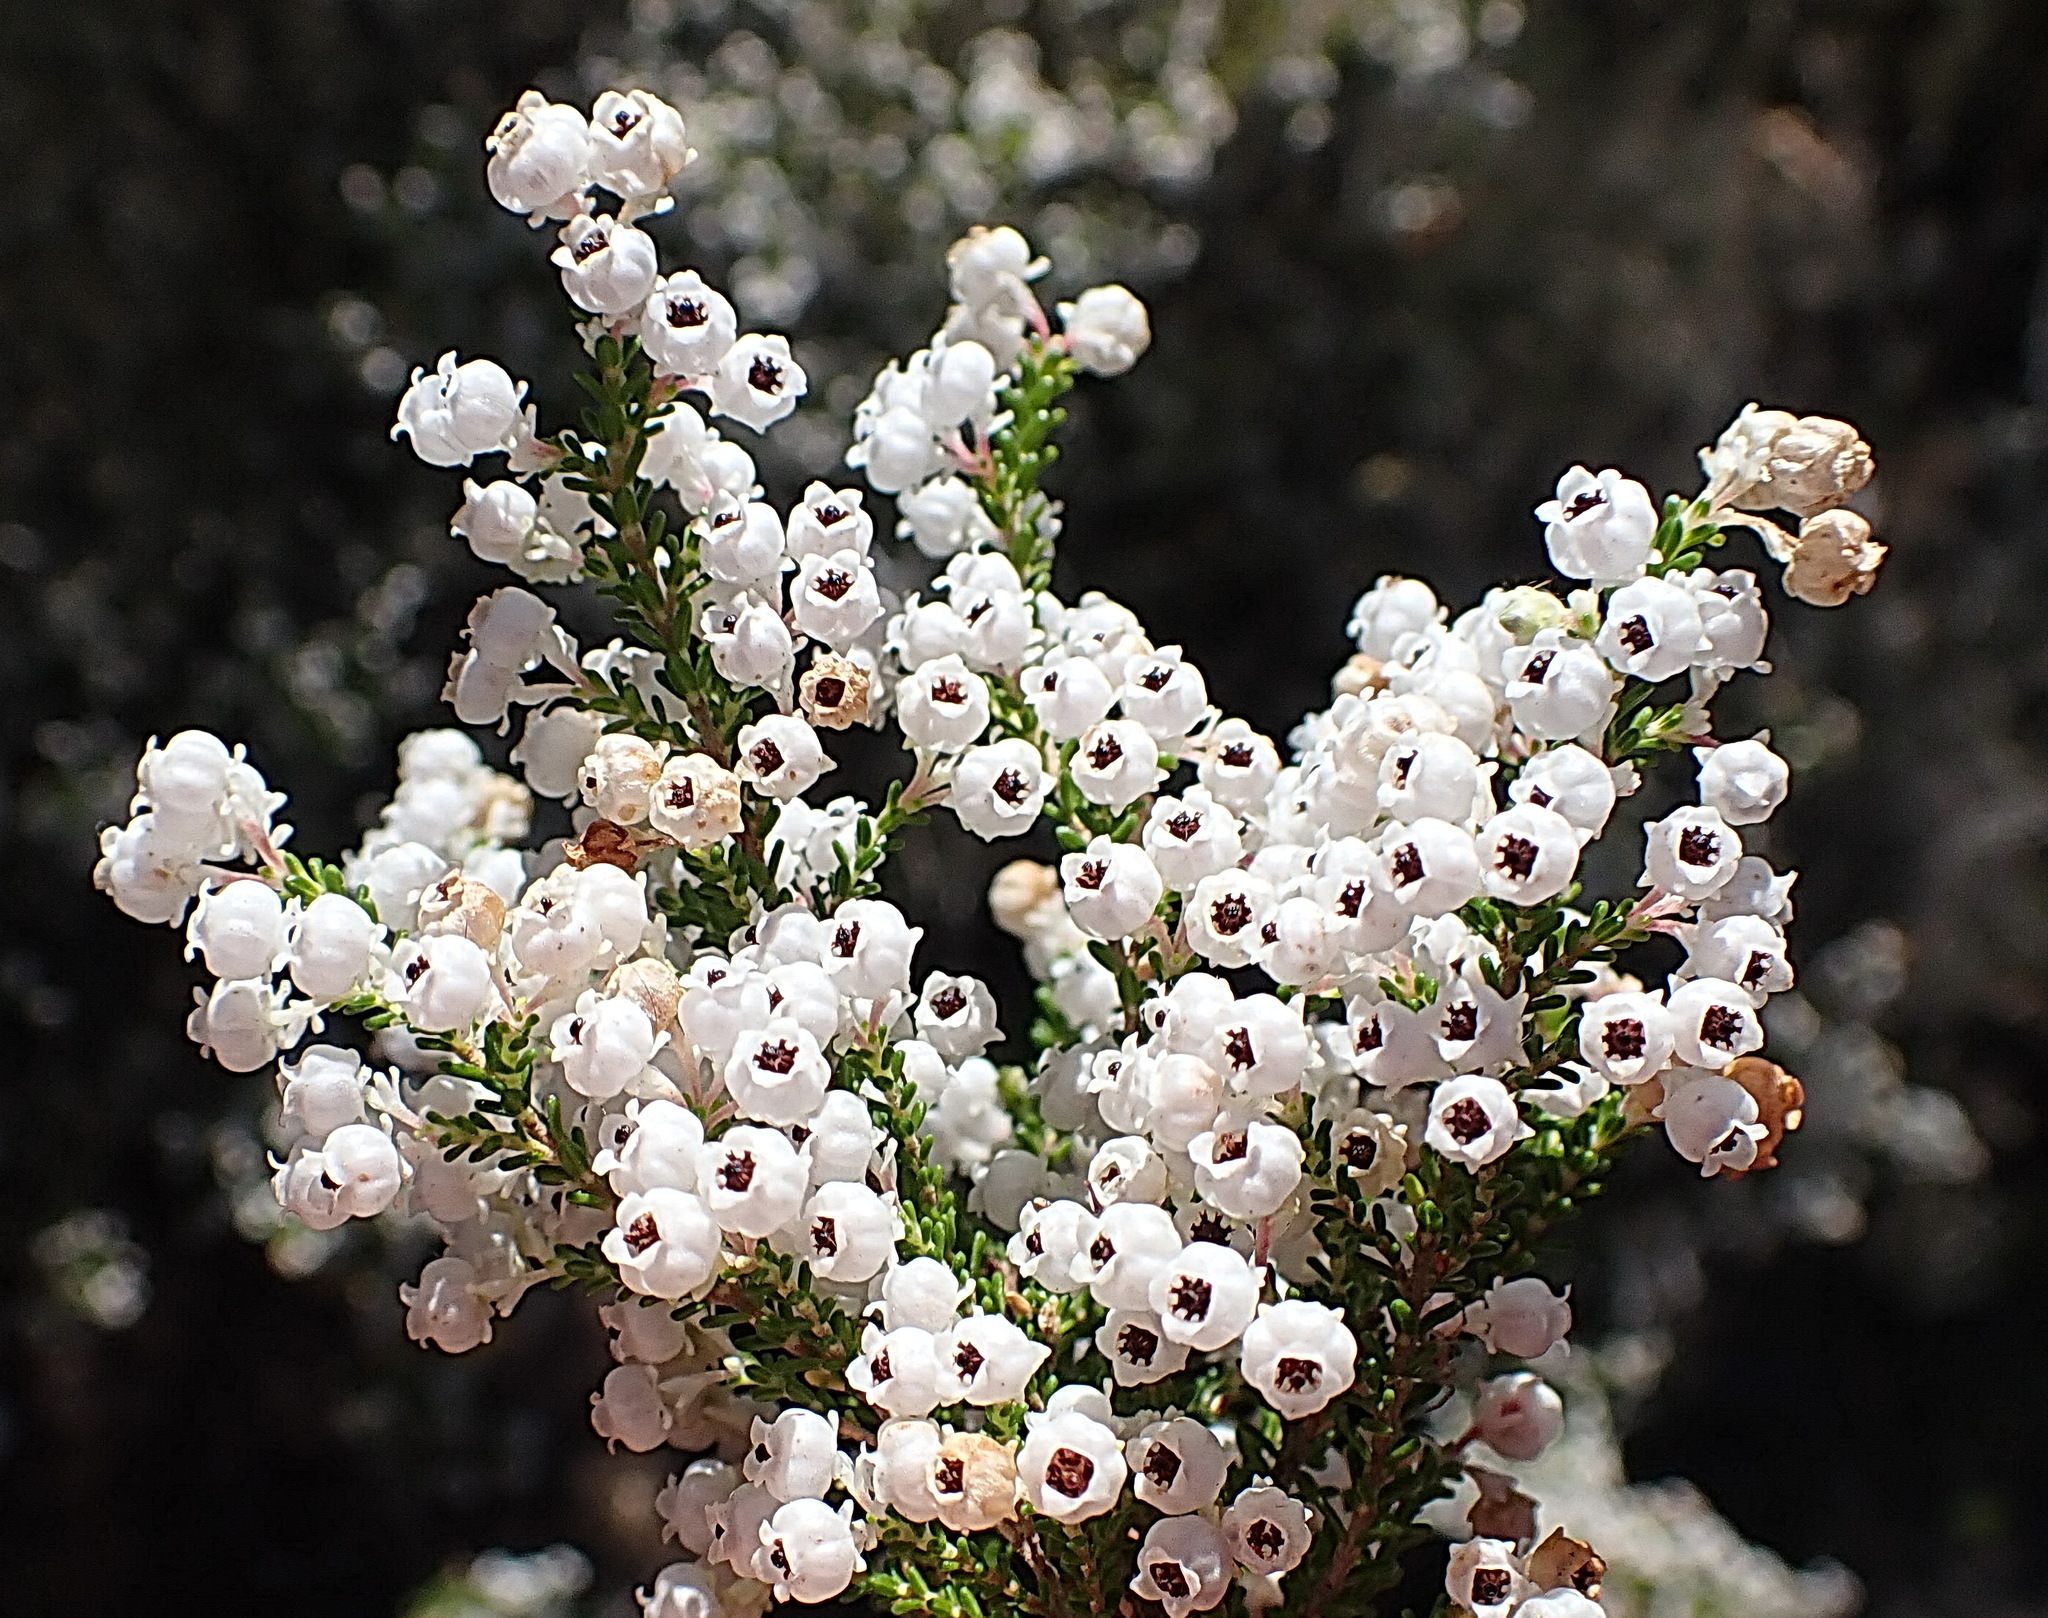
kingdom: Plantae
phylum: Tracheophyta
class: Magnoliopsida
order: Ericales
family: Ericaceae
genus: Erica
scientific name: Erica formosa
